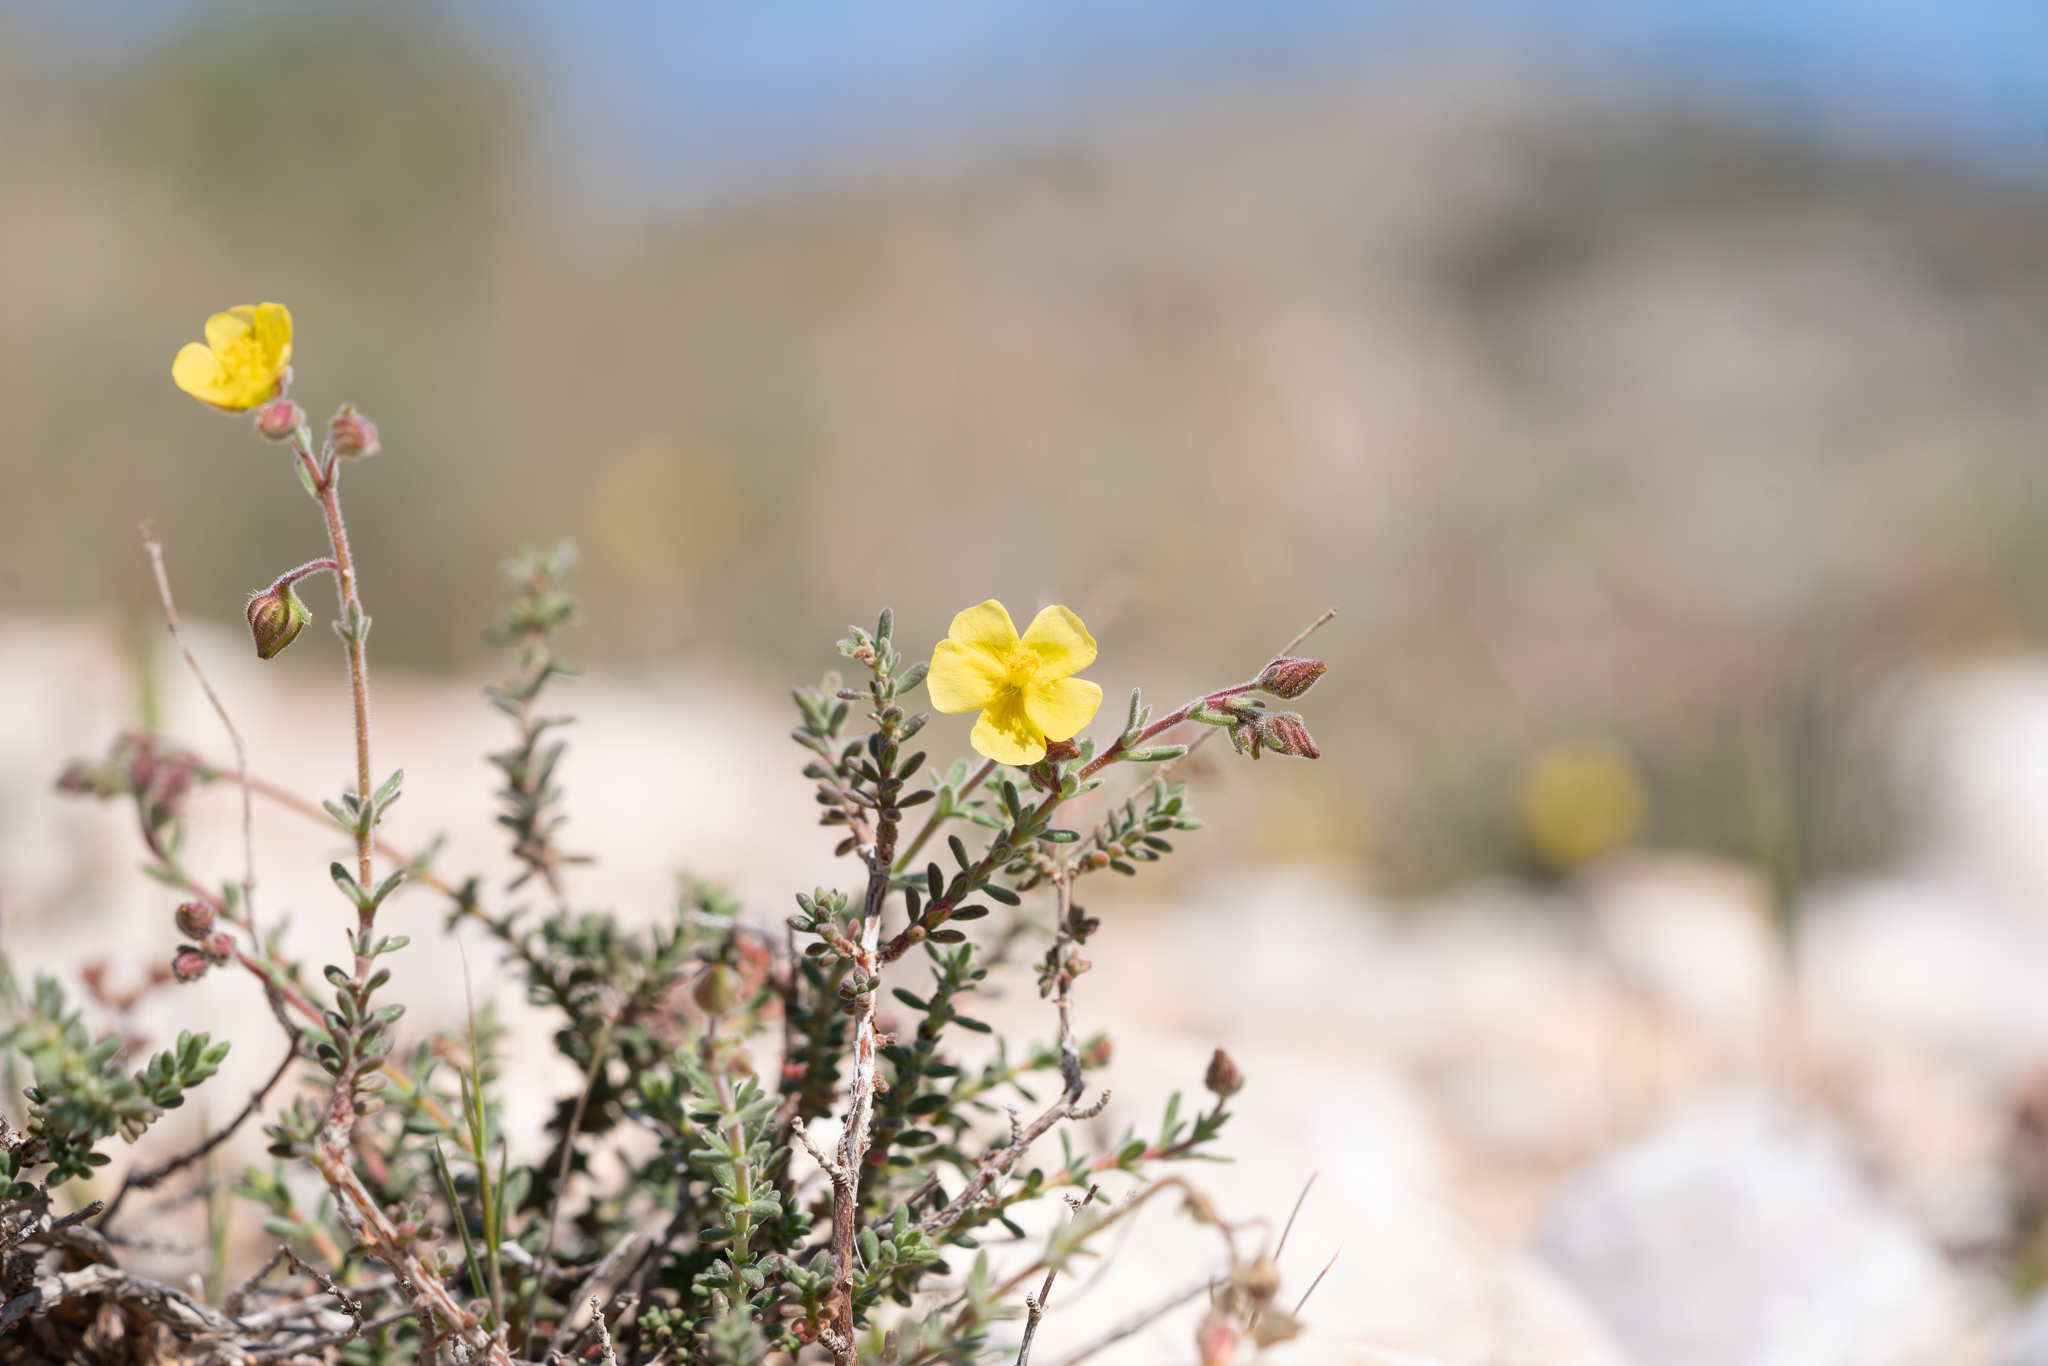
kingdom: Plantae
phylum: Tracheophyta
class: Magnoliopsida
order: Malvales
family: Cistaceae
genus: Fumana
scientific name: Fumana thymifolia
